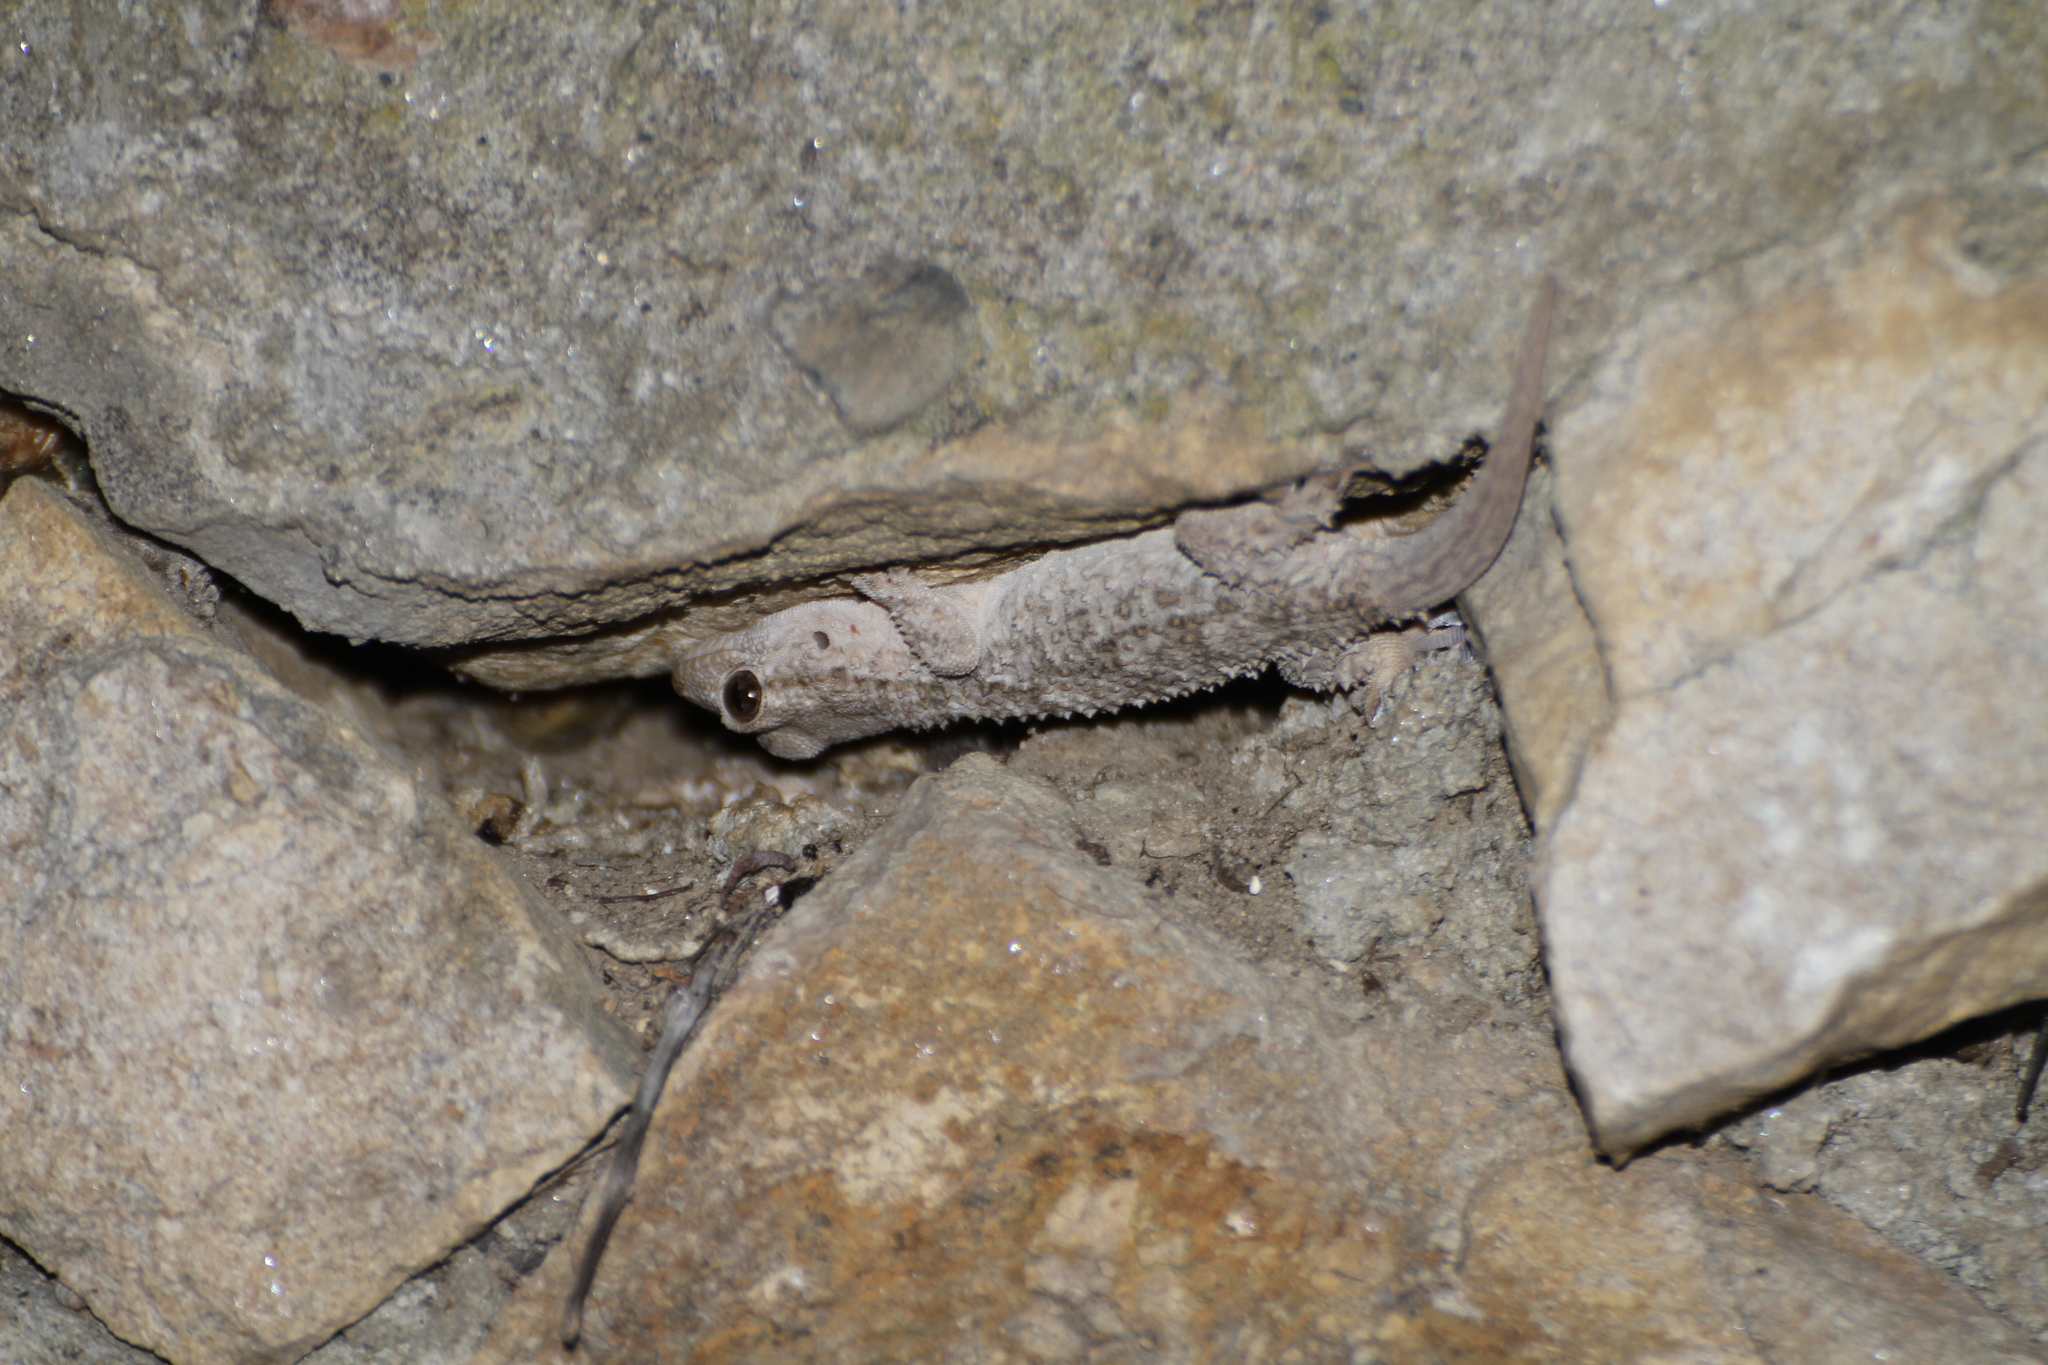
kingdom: Animalia
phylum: Chordata
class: Squamata
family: Phyllodactylidae
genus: Tarentola
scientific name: Tarentola mauritanica
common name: Moorish gecko
